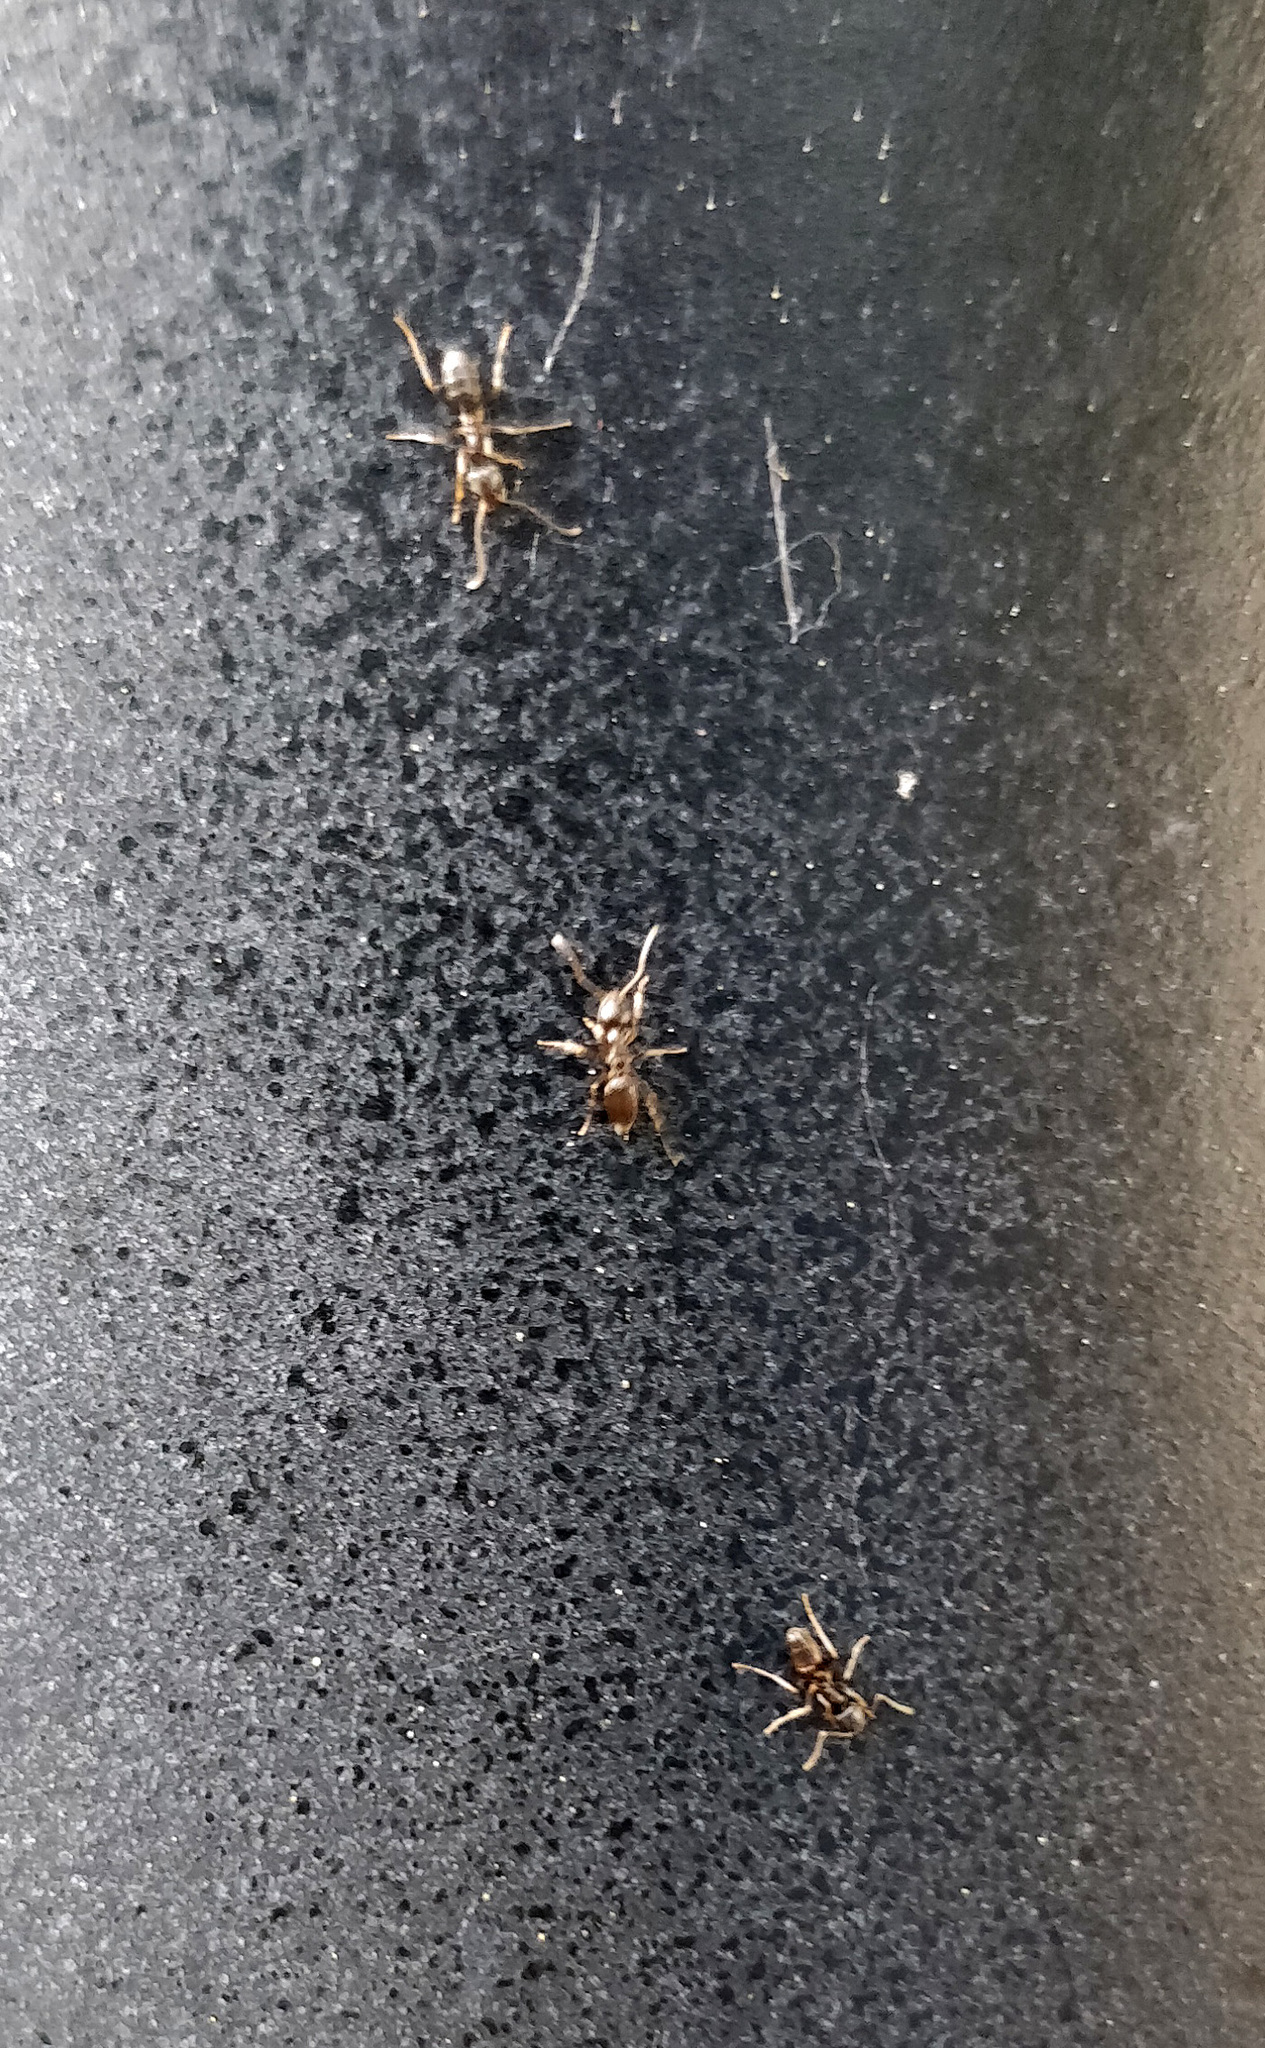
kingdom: Animalia
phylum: Arthropoda
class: Insecta
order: Hymenoptera
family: Formicidae
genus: Tapinoma
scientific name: Tapinoma sessile
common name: Odorous house ant
